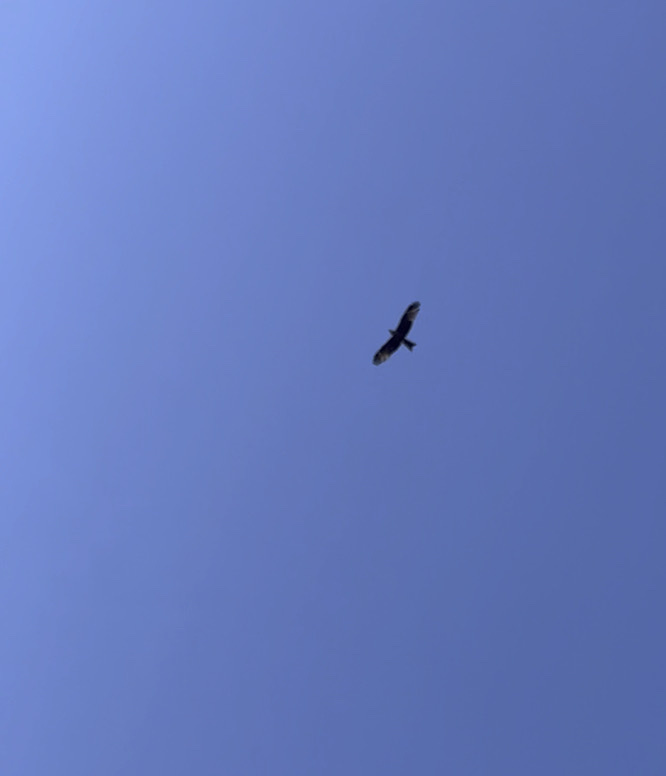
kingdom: Animalia
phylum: Chordata
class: Aves
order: Accipitriformes
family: Accipitridae
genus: Milvus
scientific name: Milvus milvus
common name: Red kite
